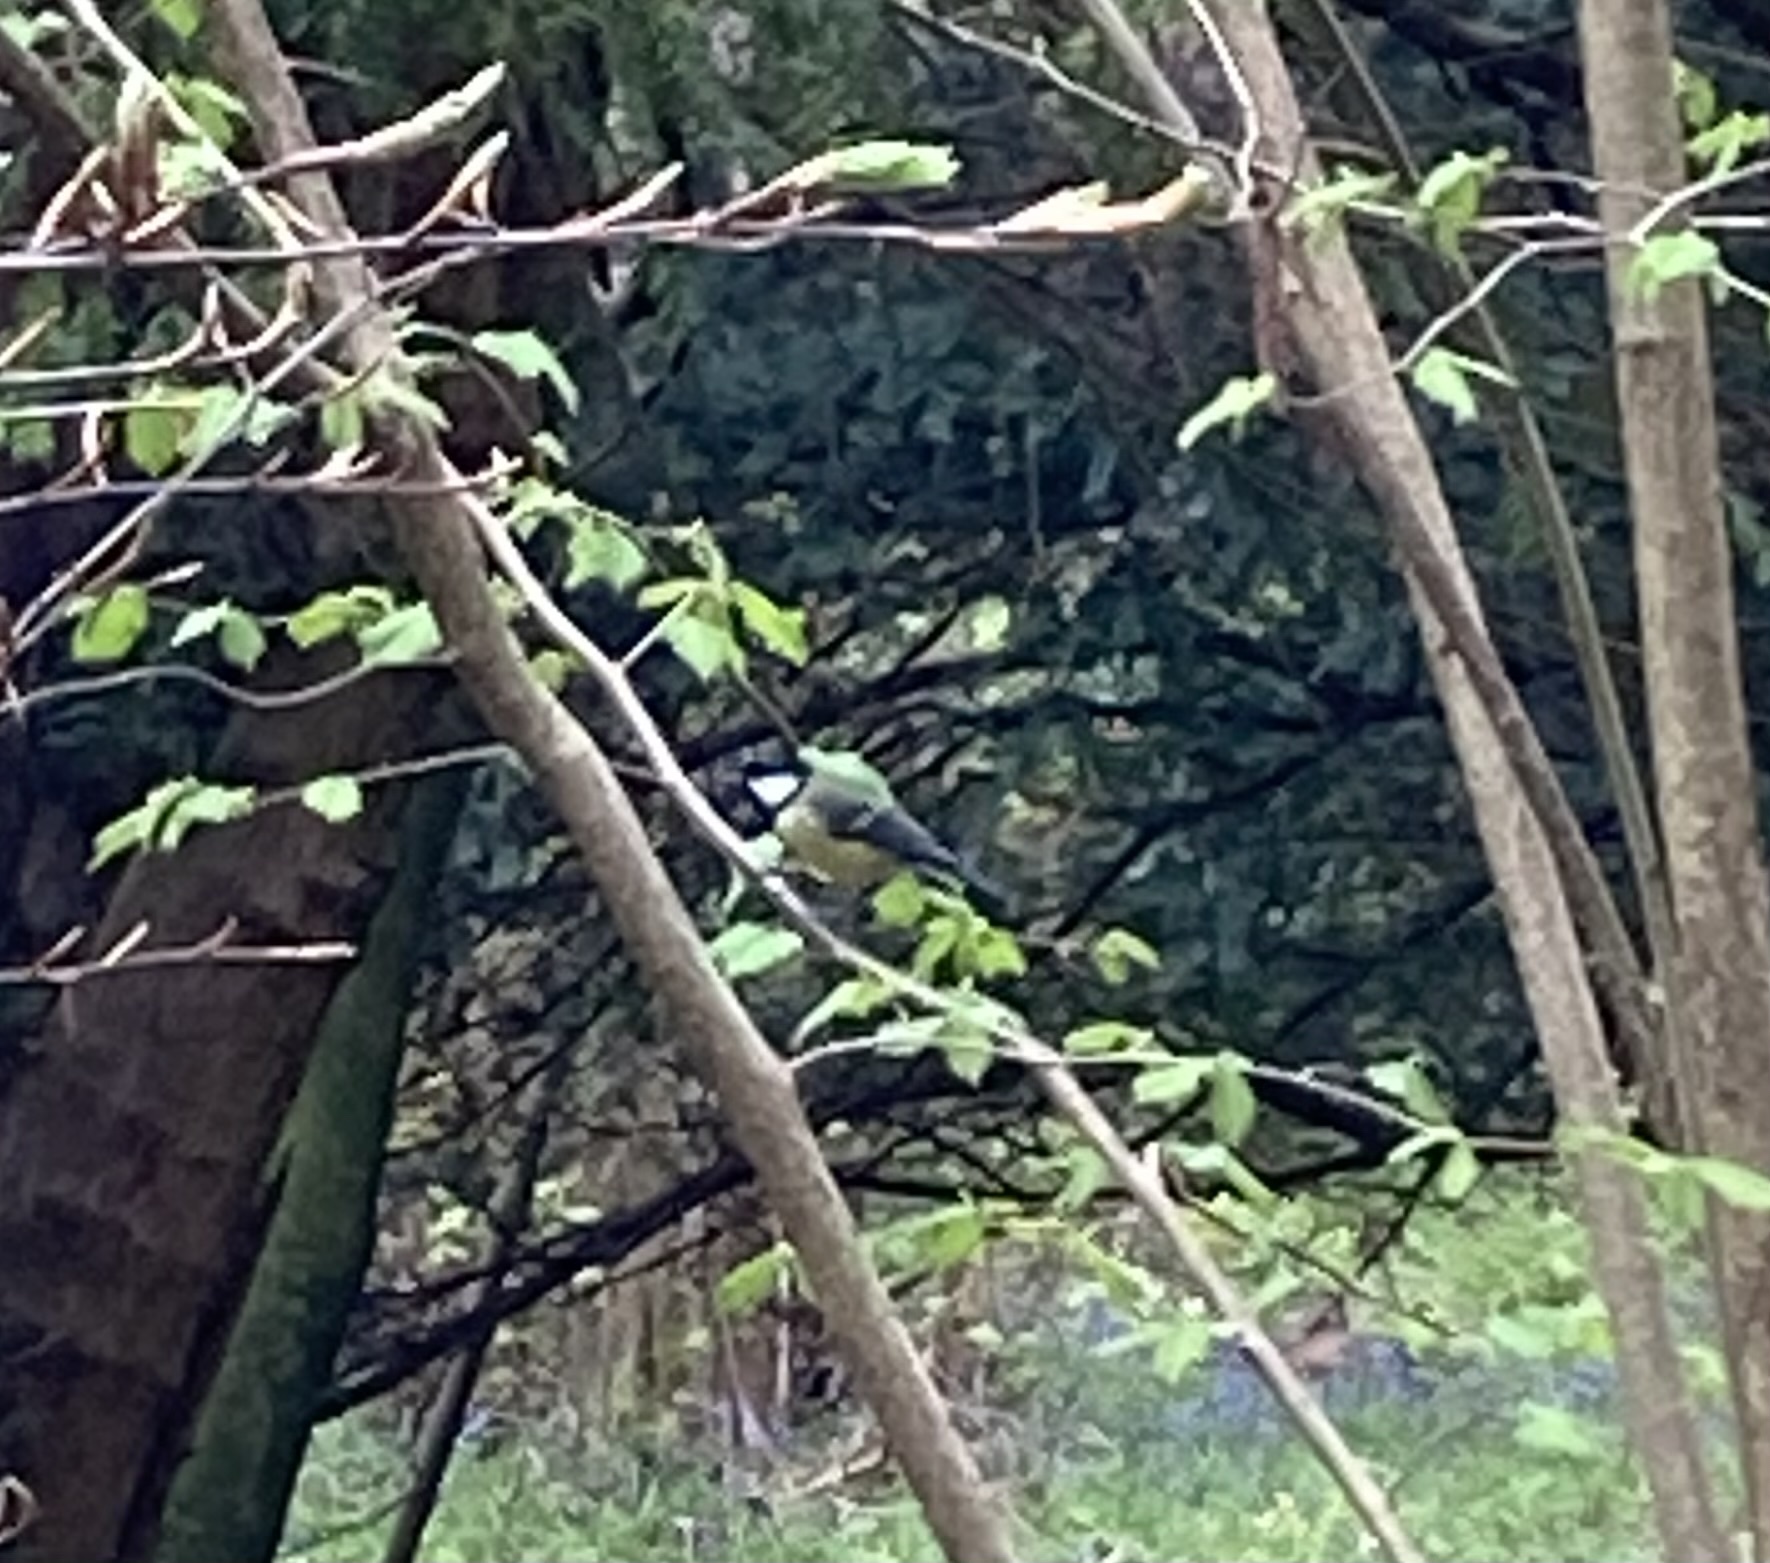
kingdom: Animalia
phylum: Chordata
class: Aves
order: Passeriformes
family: Paridae
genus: Parus
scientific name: Parus major
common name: Great tit
